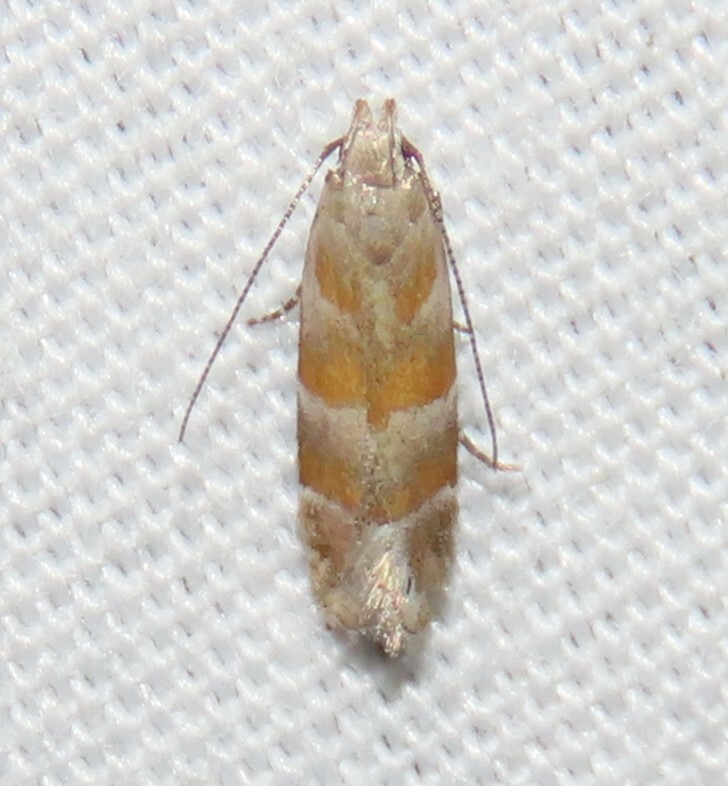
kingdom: Animalia
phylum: Arthropoda
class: Insecta
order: Lepidoptera
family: Gelechiidae
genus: Battaristis
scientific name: Battaristis vittella
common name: Orange stripe-backed moth
